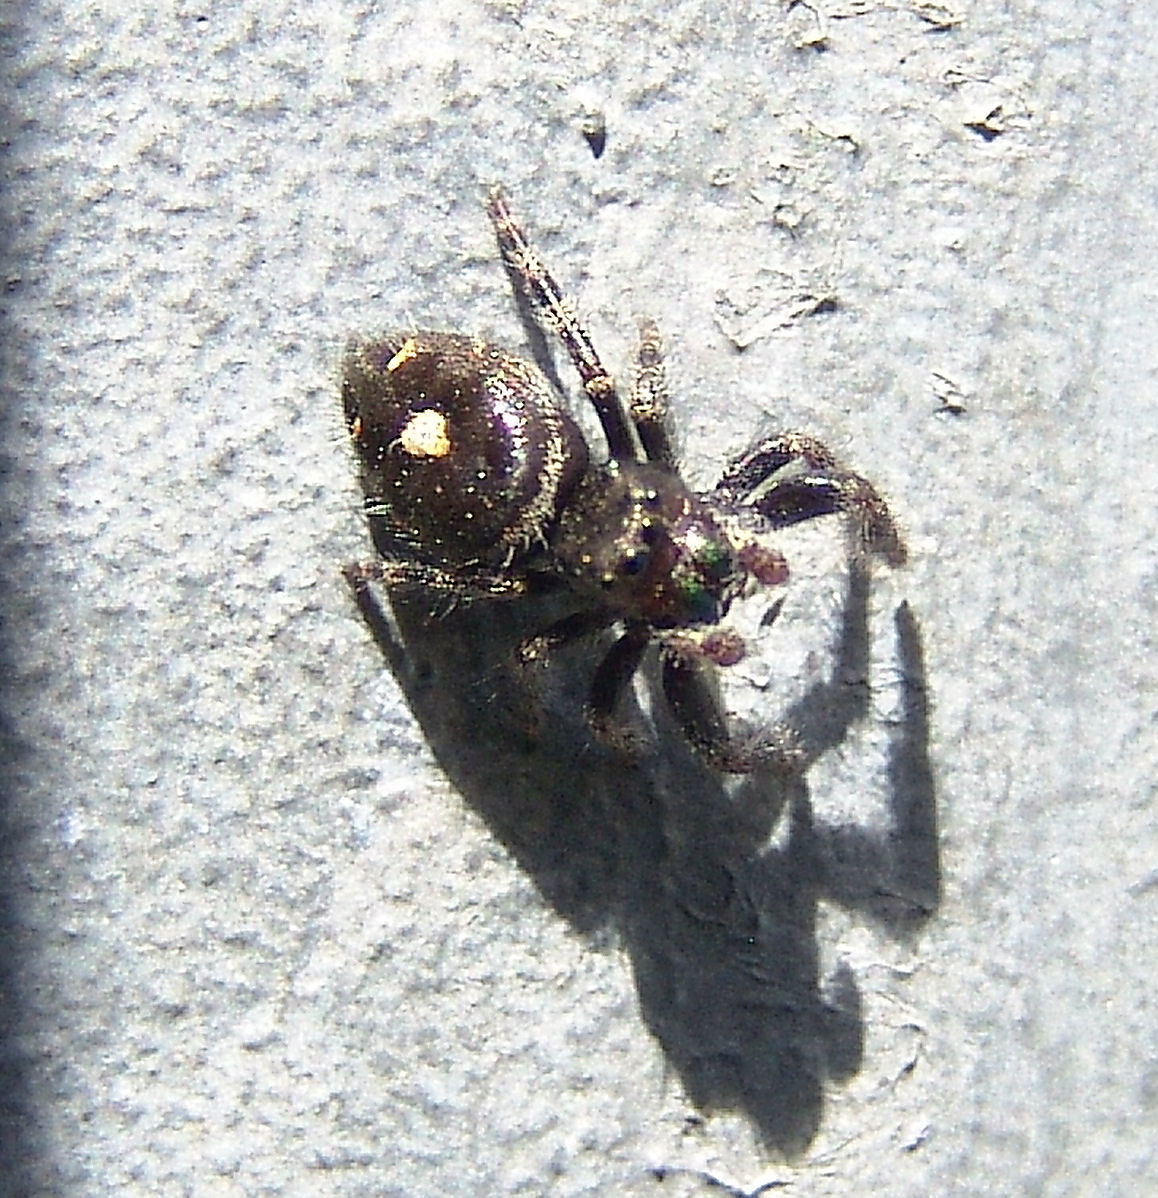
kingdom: Animalia
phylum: Arthropoda
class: Arachnida
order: Araneae
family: Salticidae
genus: Phidippus
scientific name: Phidippus audax
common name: Bold jumper
